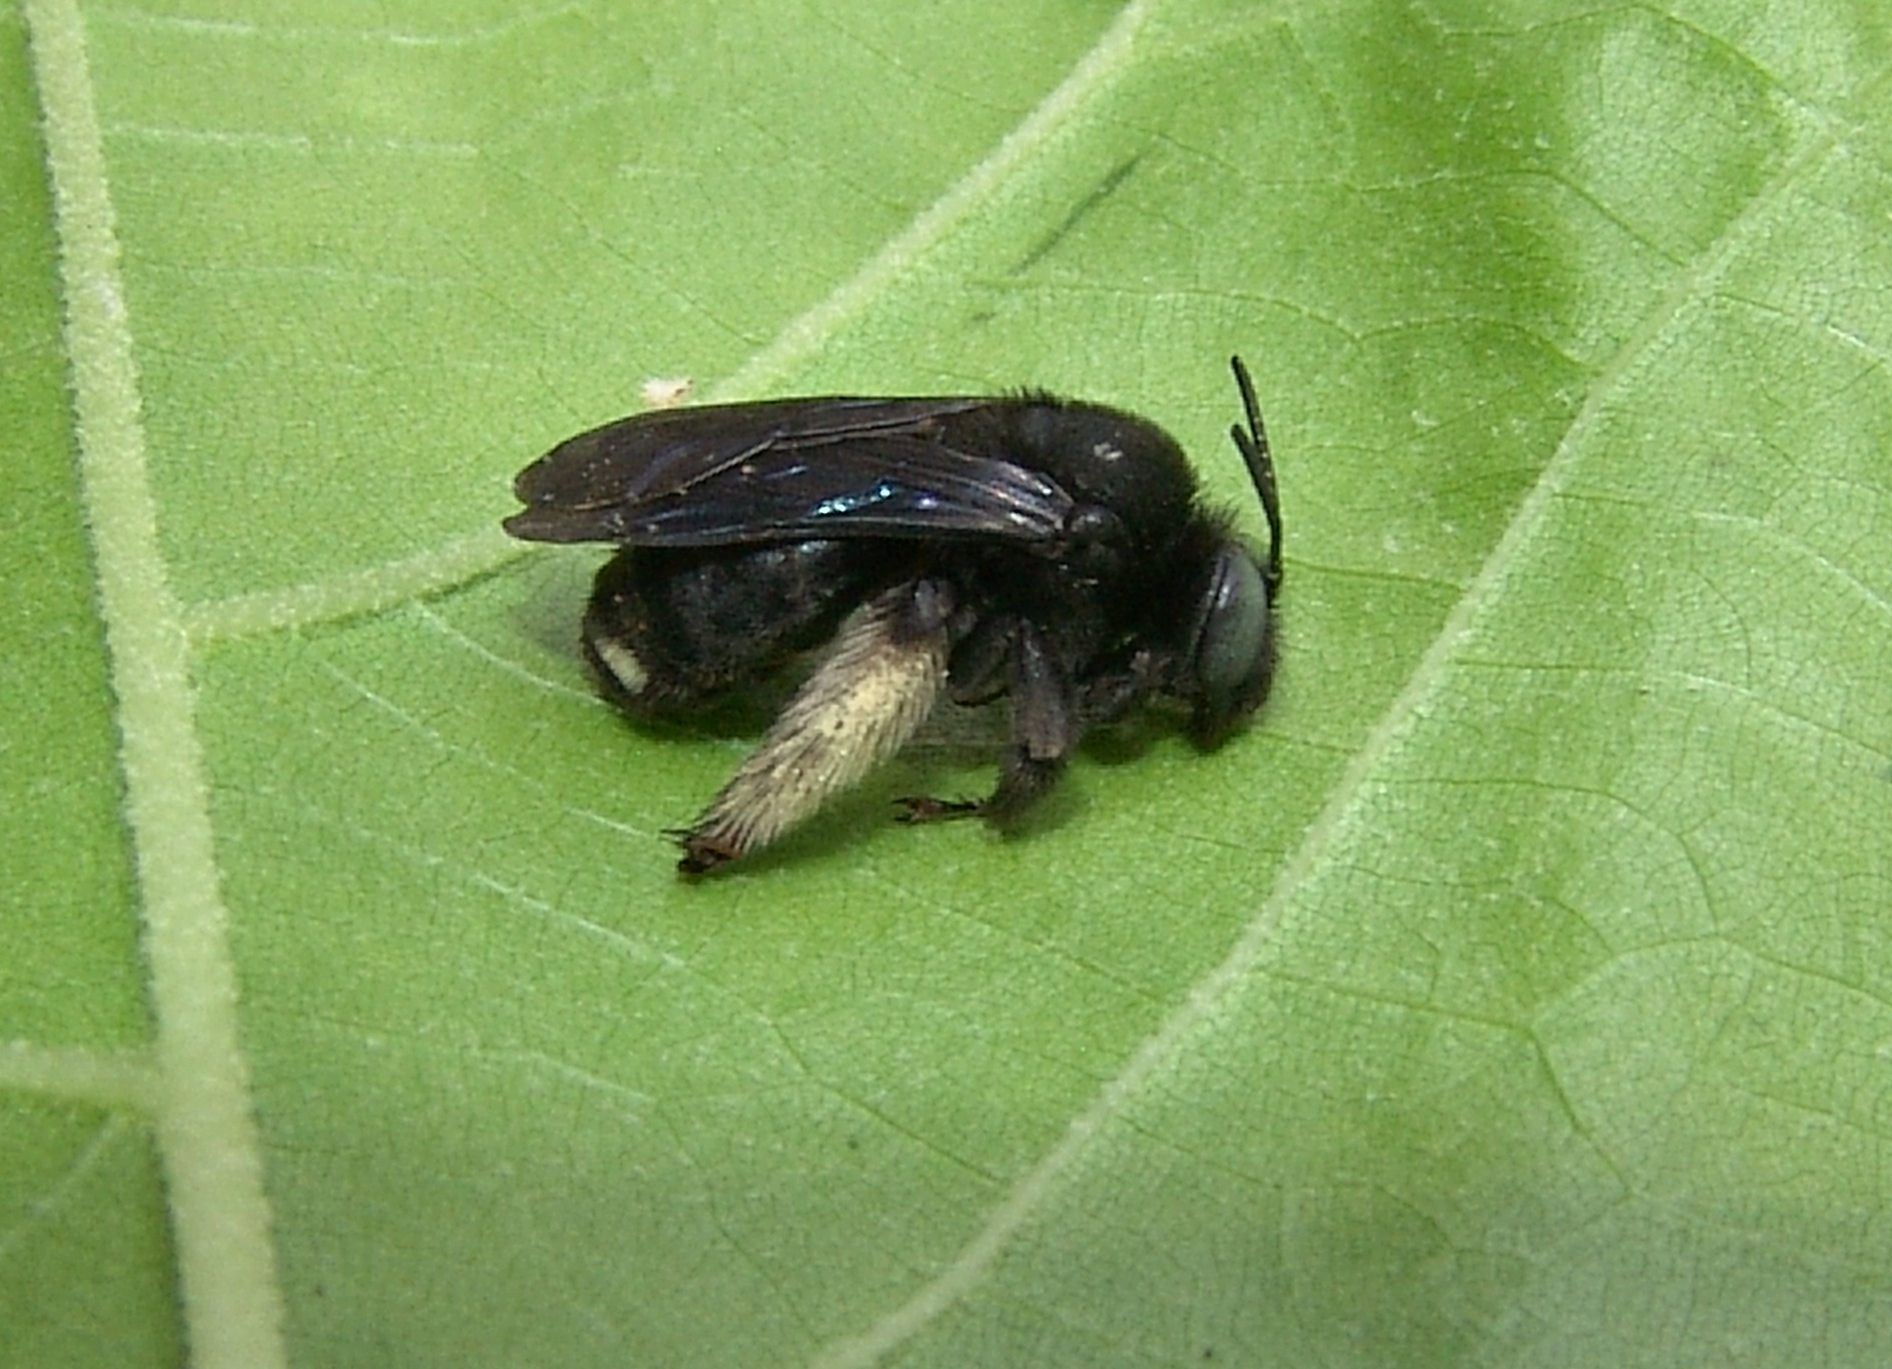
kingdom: Animalia
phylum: Arthropoda
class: Insecta
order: Hymenoptera
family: Apidae
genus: Melissodes
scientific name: Melissodes bimaculatus
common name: Two-spotted long-horned bee
